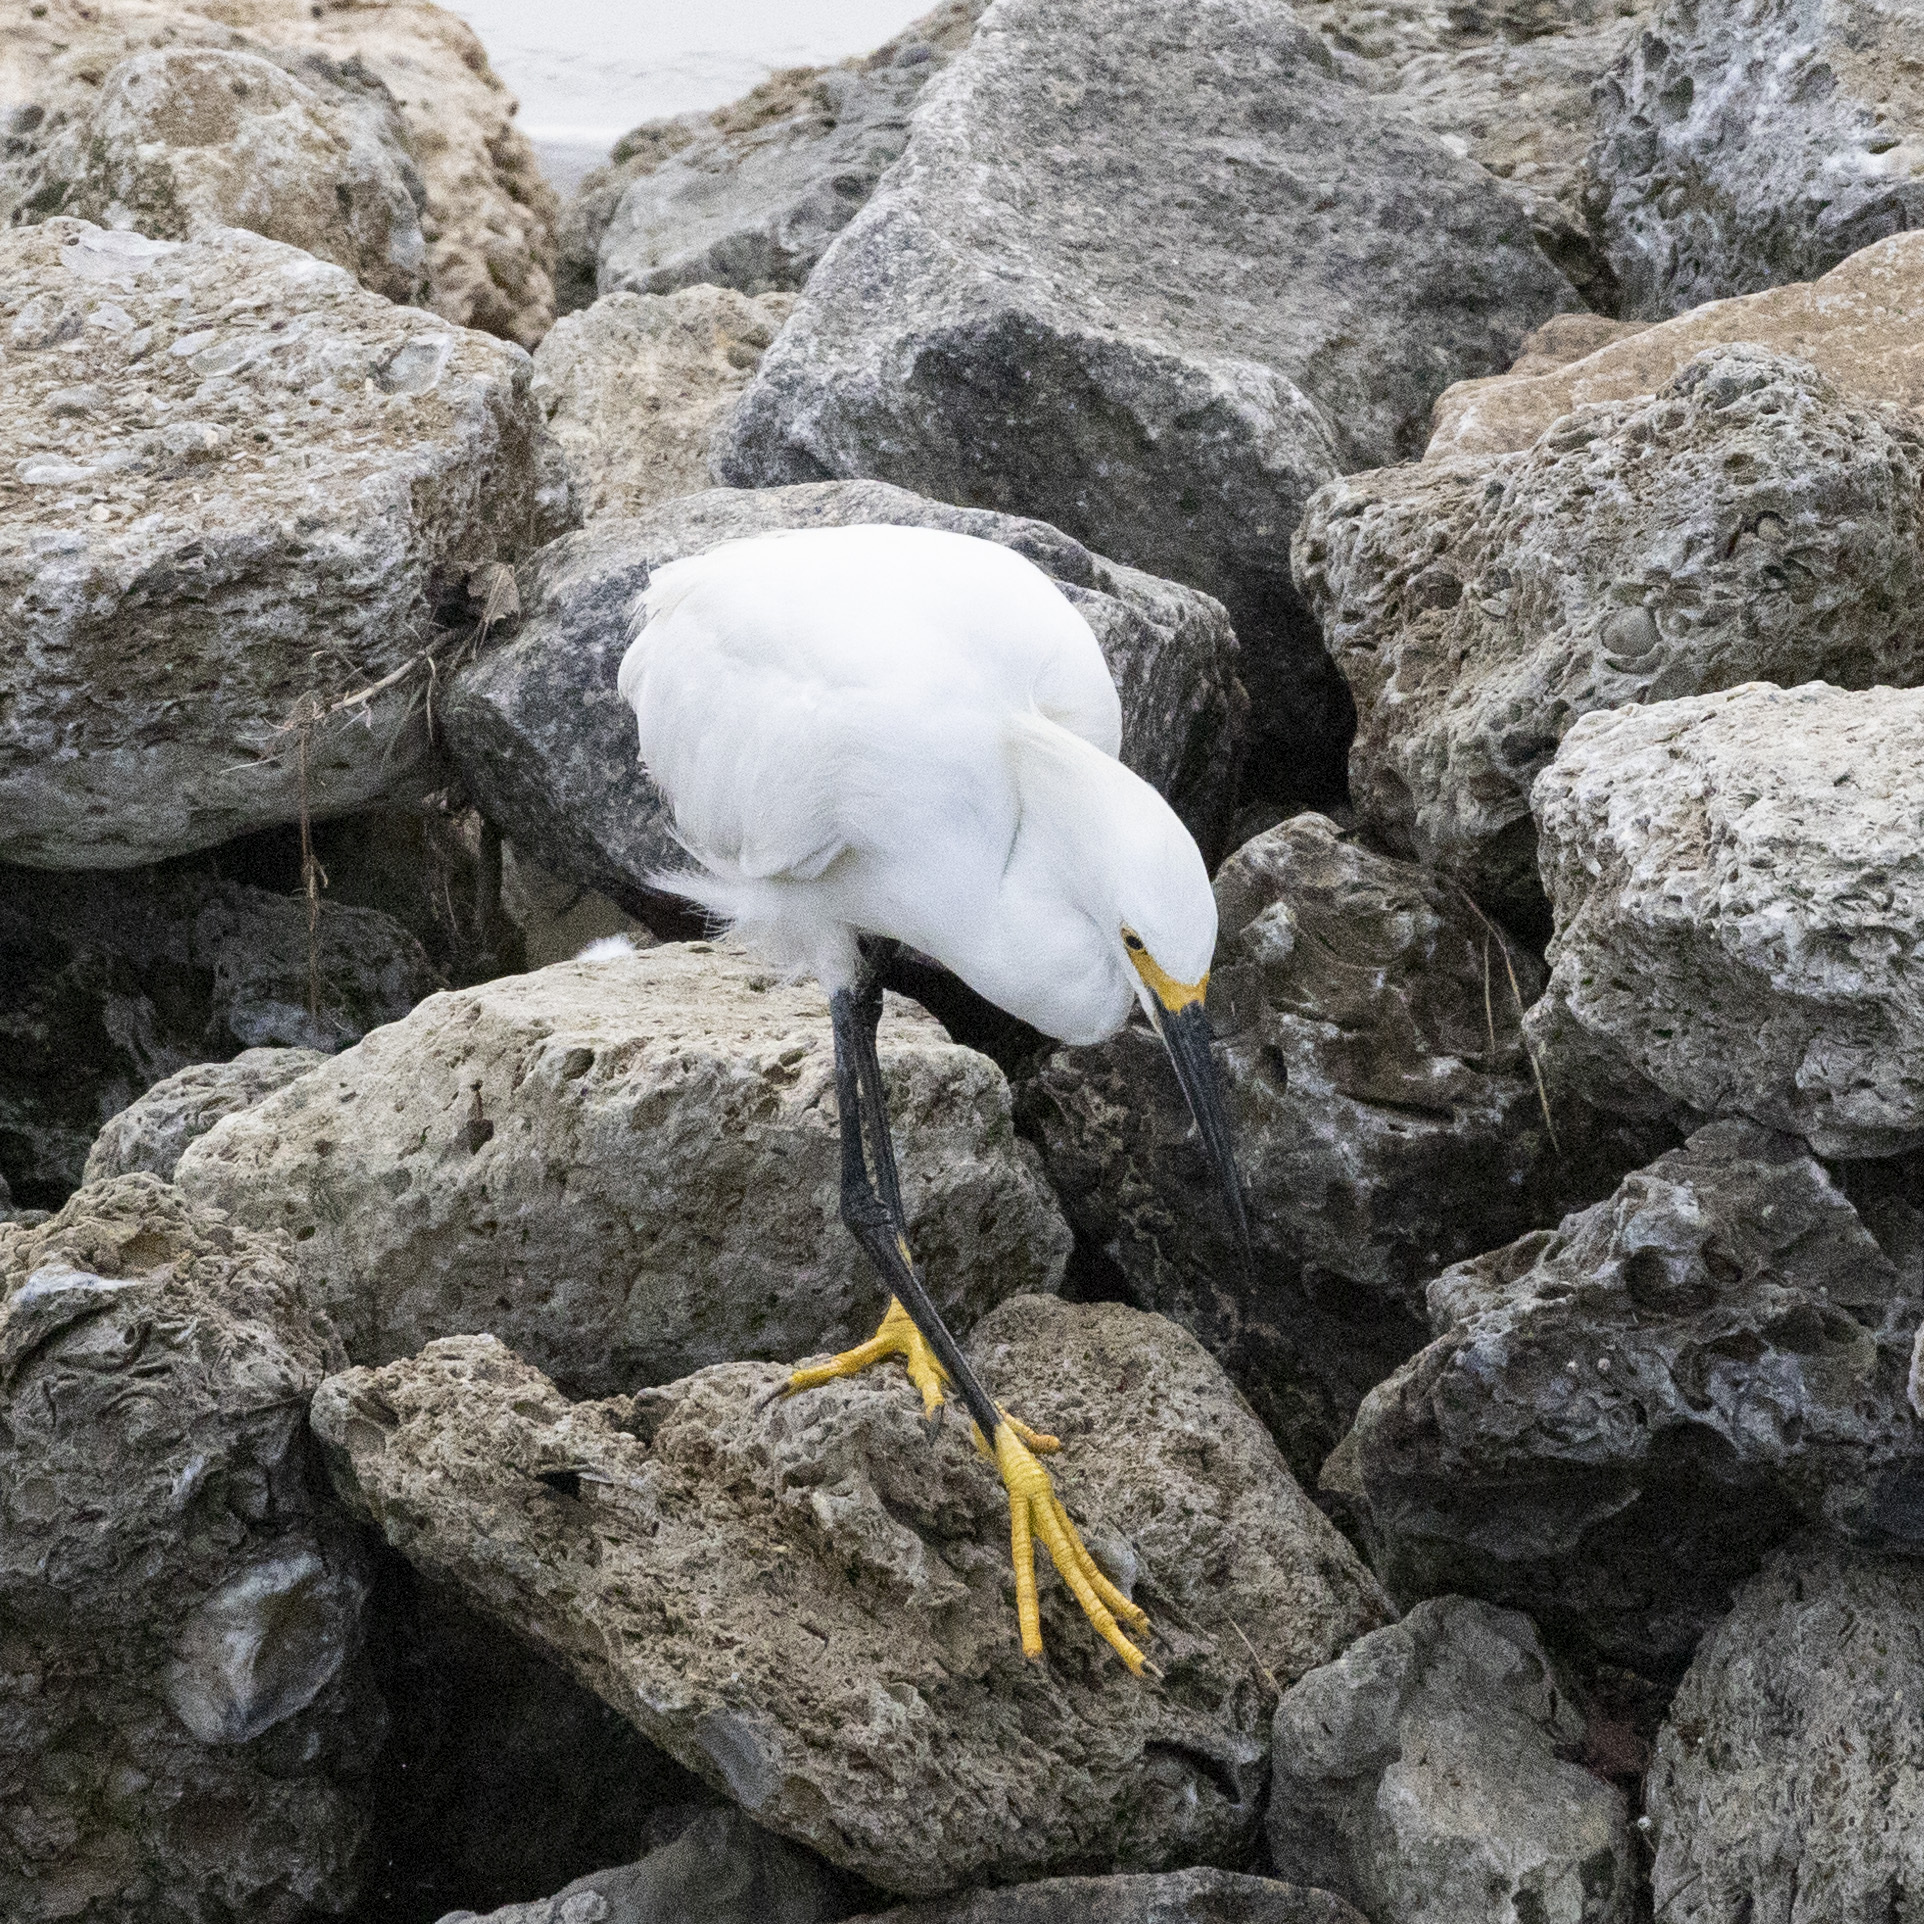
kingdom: Animalia
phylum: Chordata
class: Aves
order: Pelecaniformes
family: Ardeidae
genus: Egretta
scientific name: Egretta thula
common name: Snowy egret
